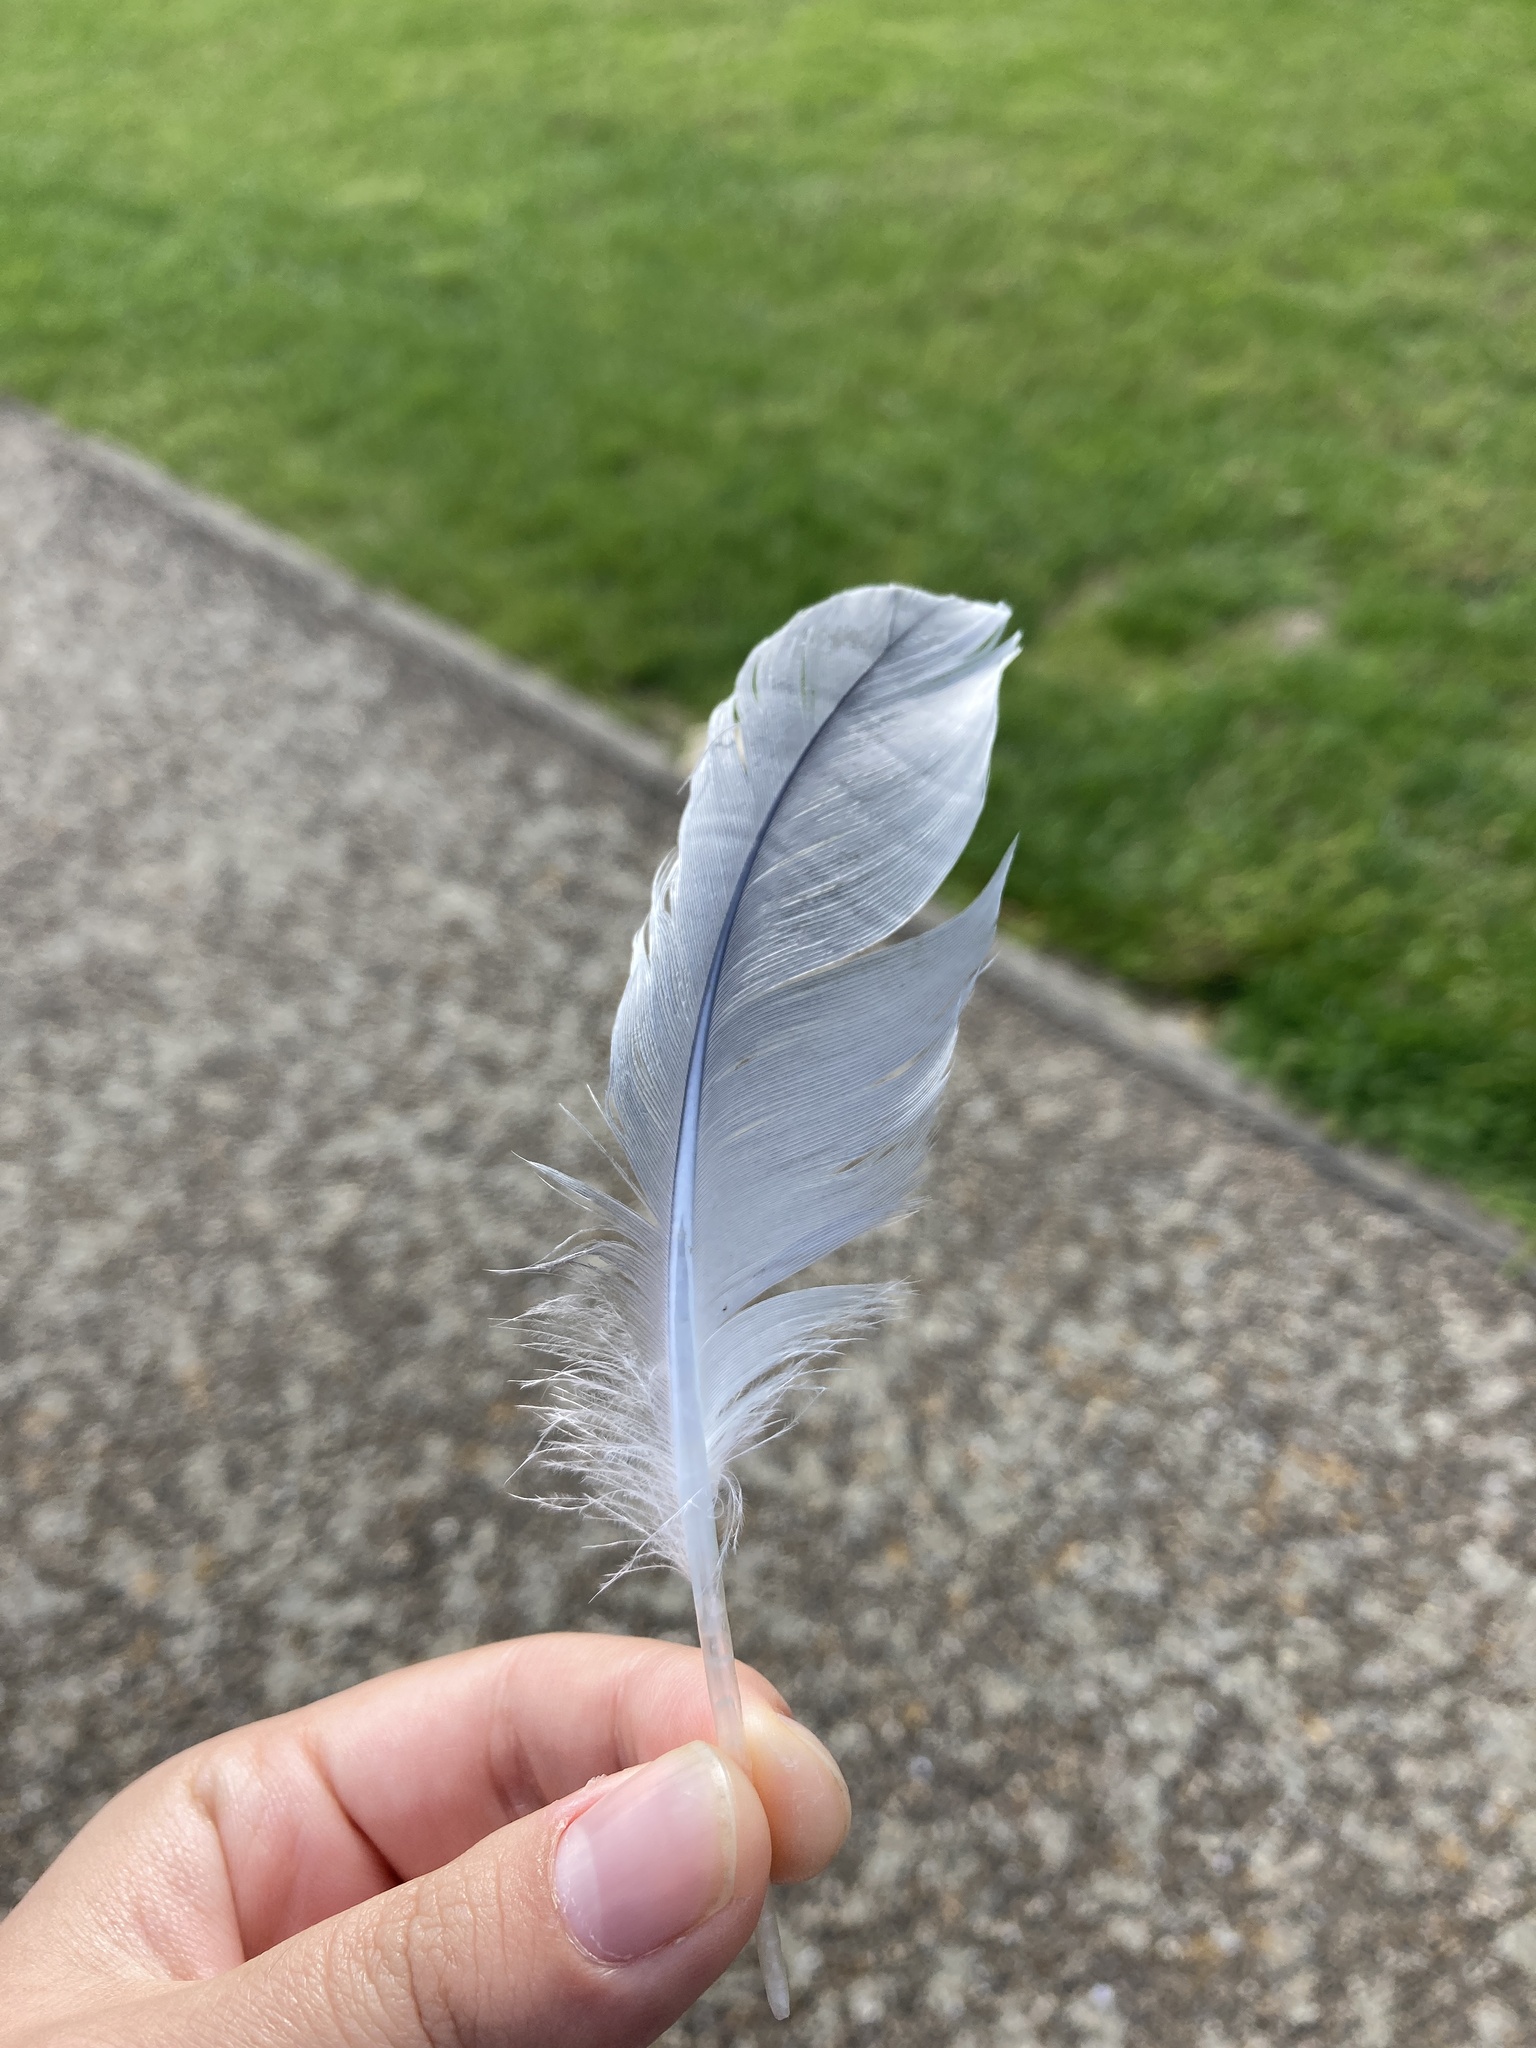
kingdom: Animalia
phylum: Chordata
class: Aves
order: Charadriiformes
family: Laridae
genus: Chroicocephalus
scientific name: Chroicocephalus ridibundus
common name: Black-headed gull
